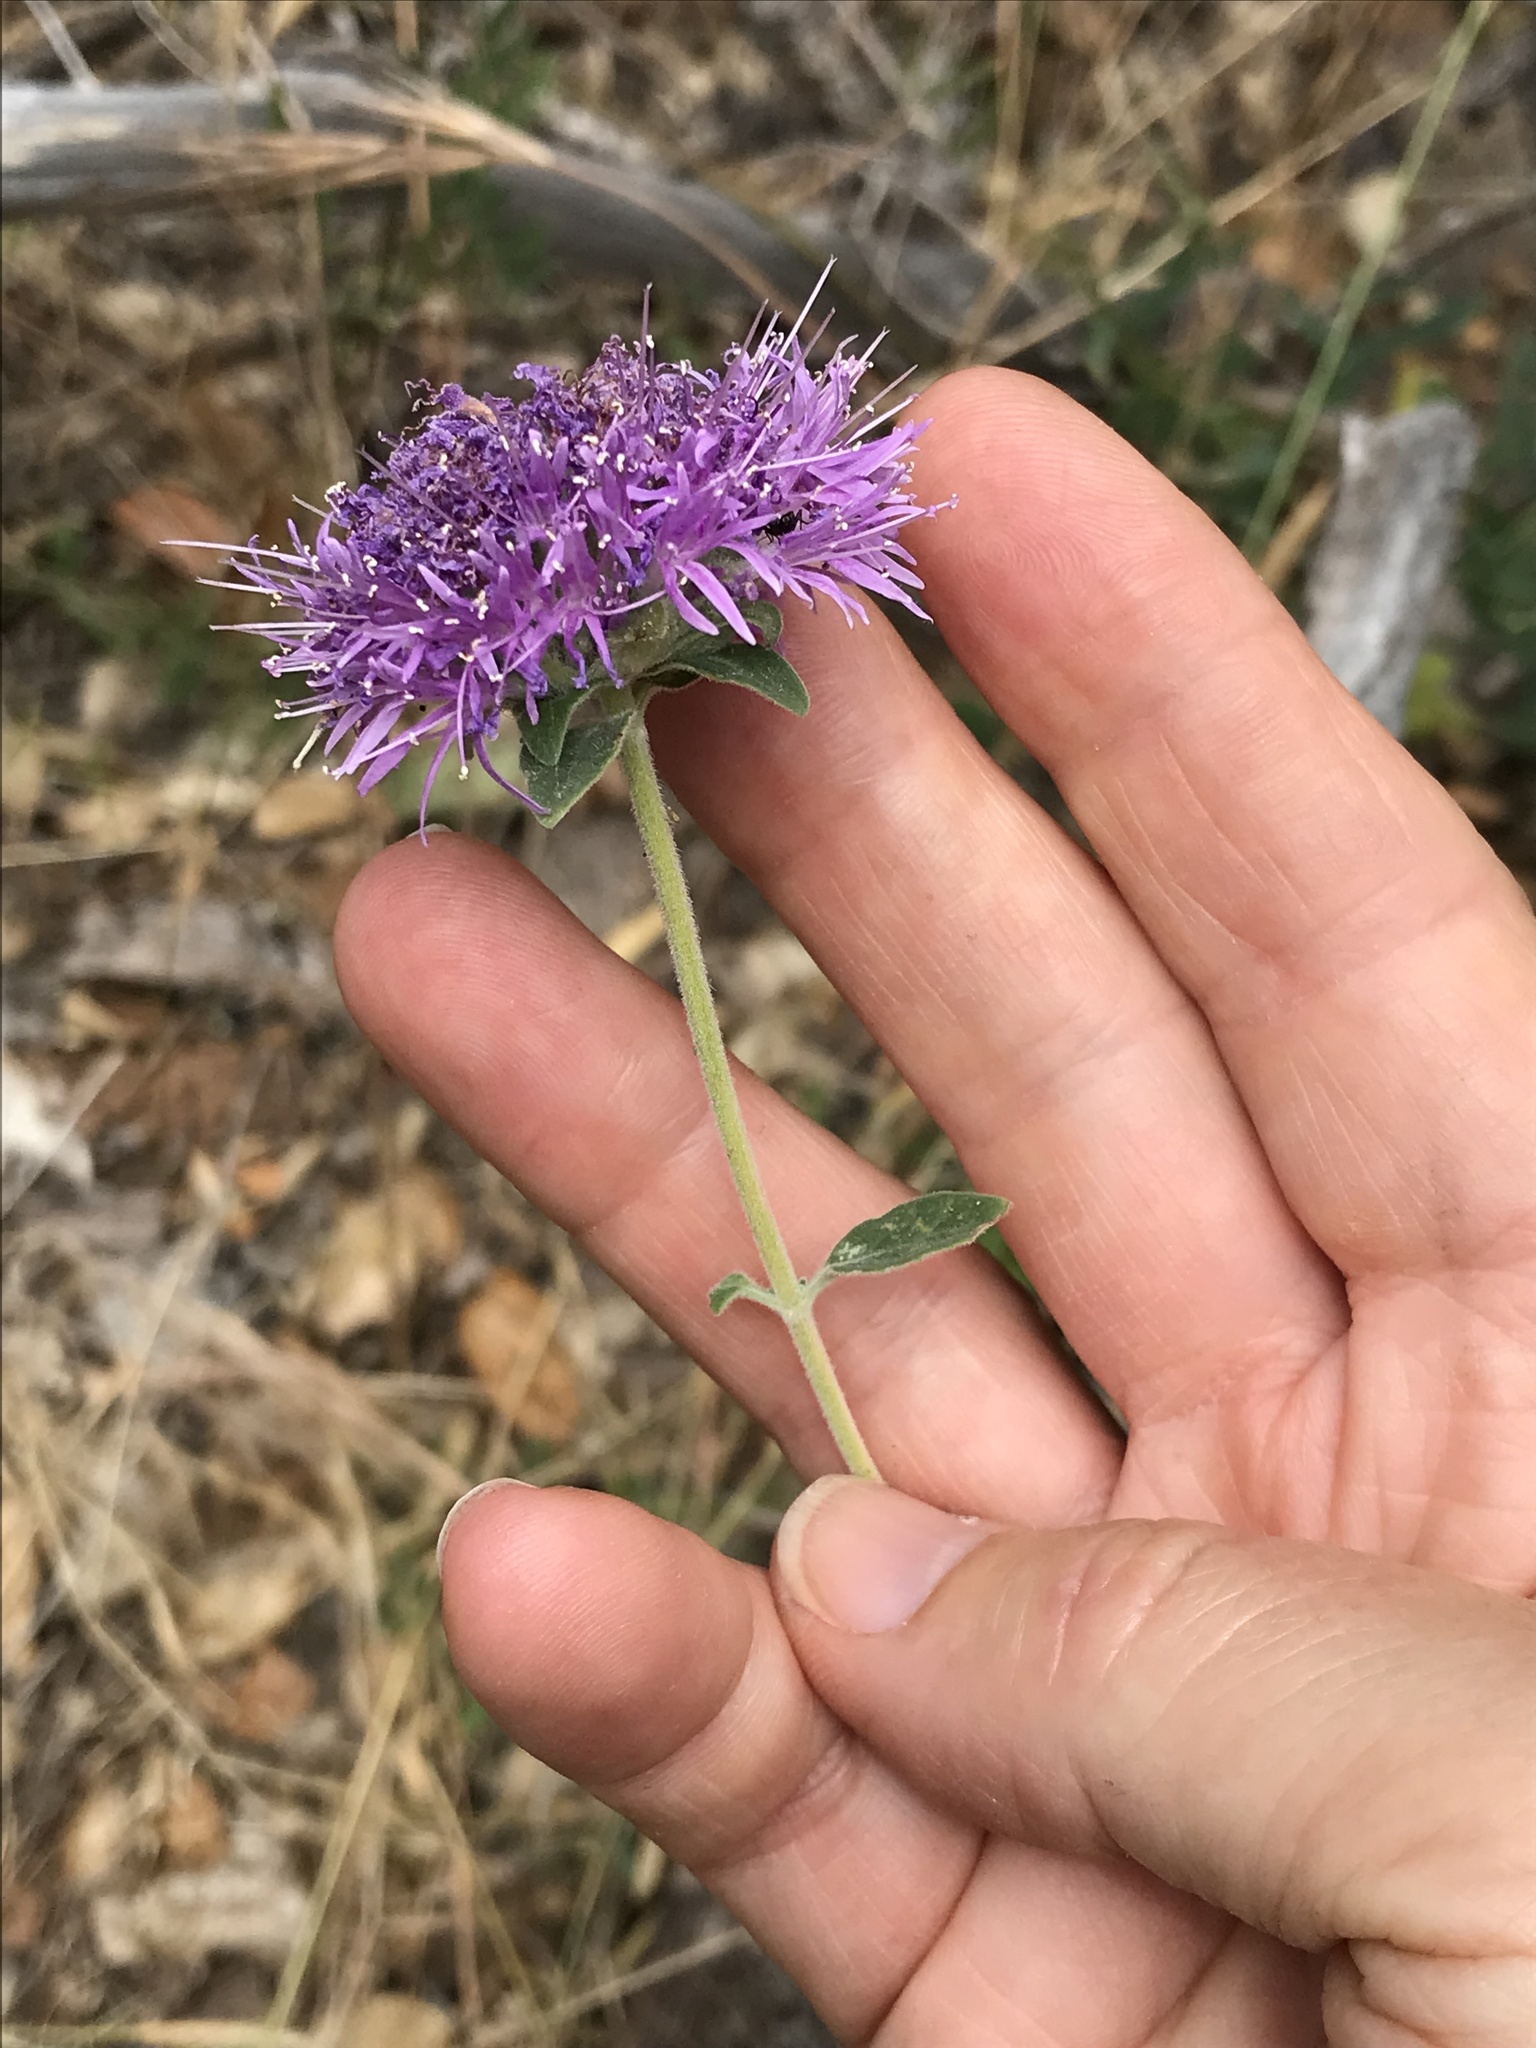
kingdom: Plantae
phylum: Tracheophyta
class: Magnoliopsida
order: Lamiales
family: Lamiaceae
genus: Monardella
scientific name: Monardella odoratissima
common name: Pacific monardella
